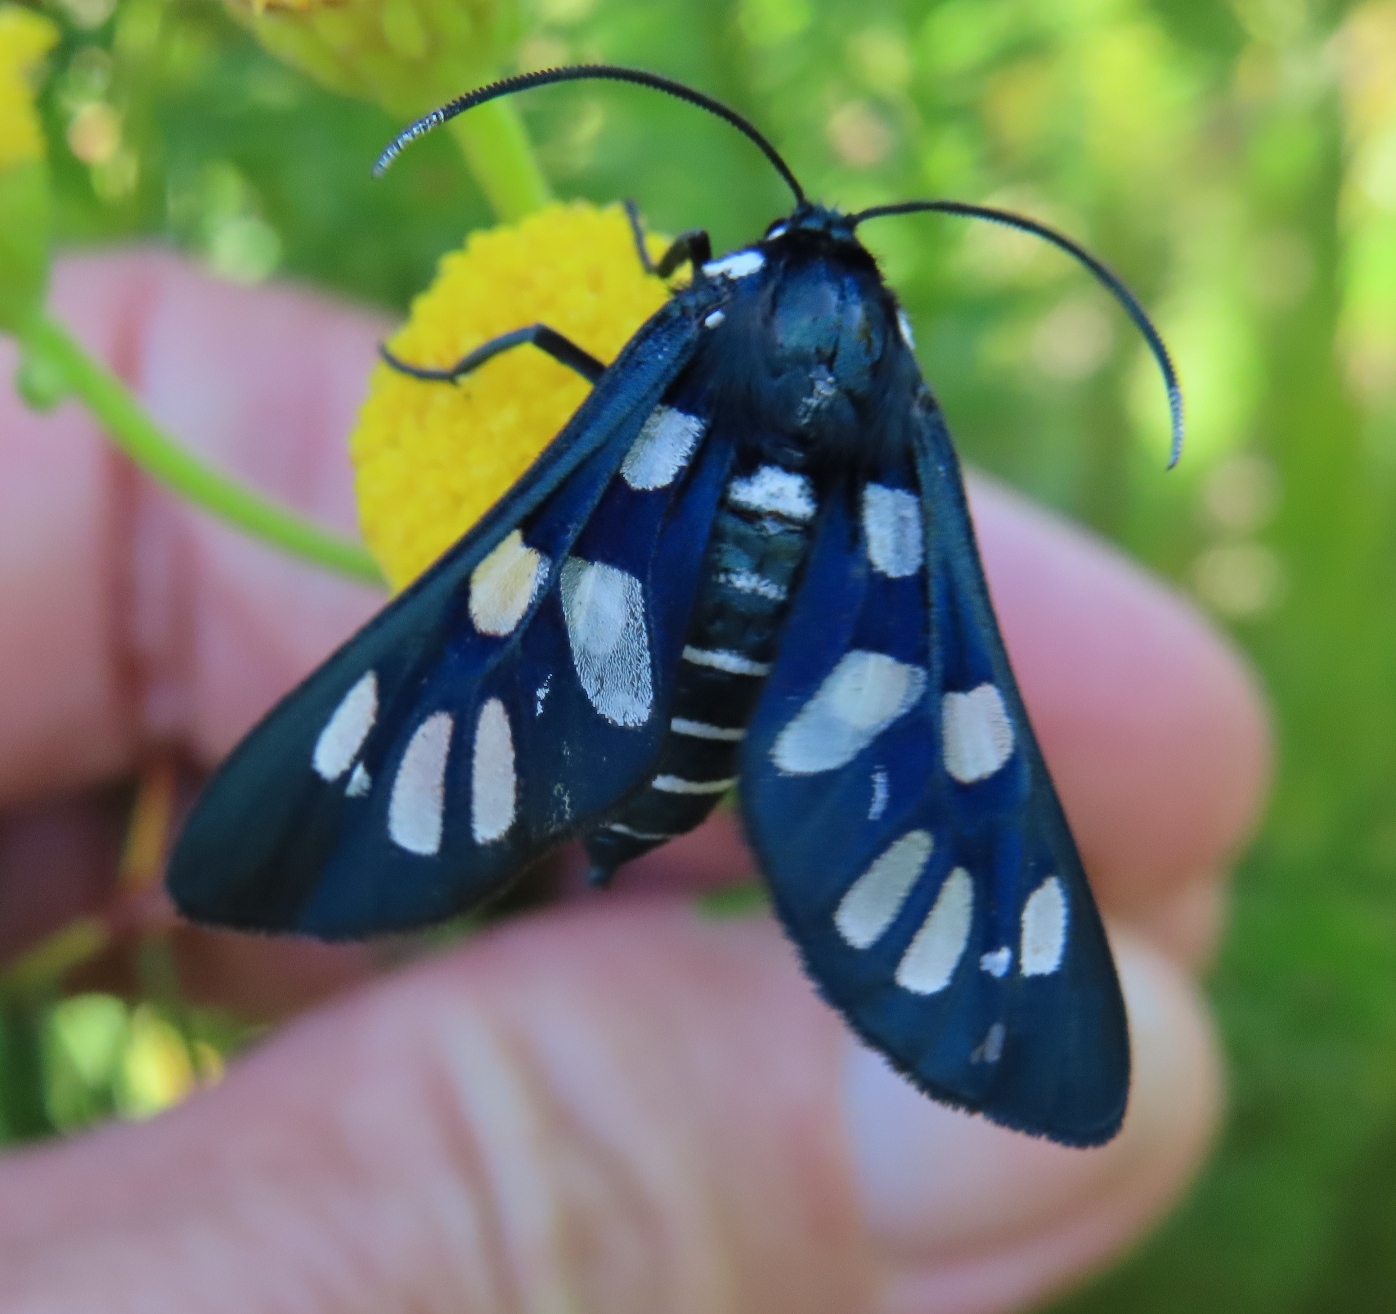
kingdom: Animalia
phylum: Arthropoda
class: Insecta
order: Lepidoptera
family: Erebidae
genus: Eutomis
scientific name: Eutomis minceus
